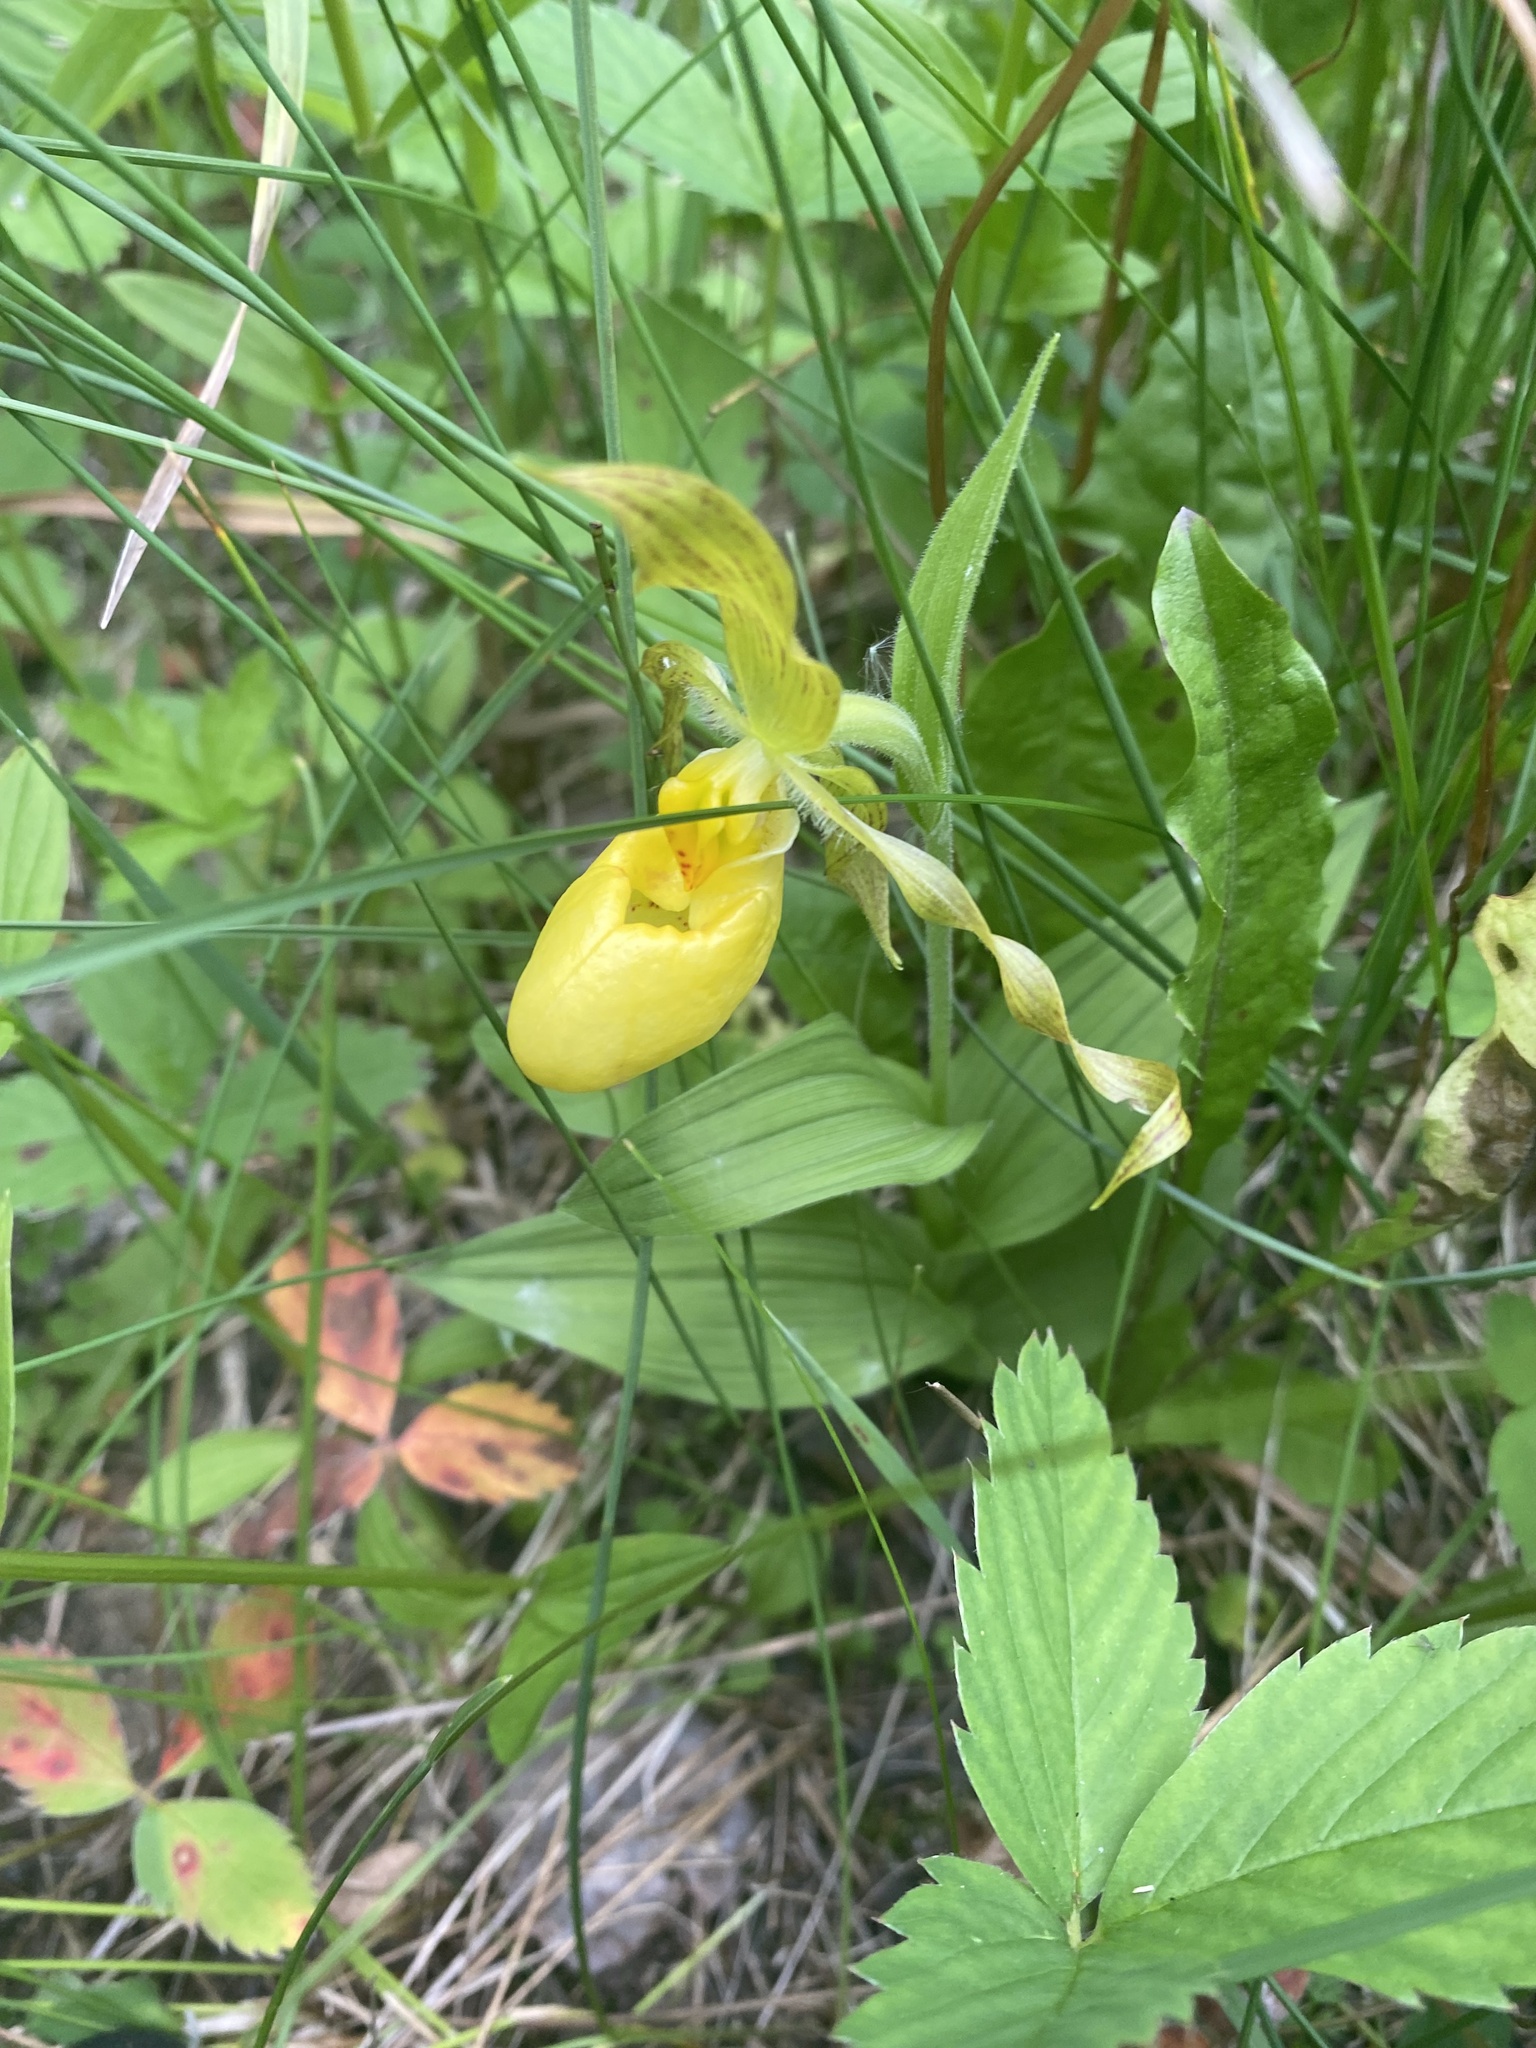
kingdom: Plantae
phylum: Tracheophyta
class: Liliopsida
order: Asparagales
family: Orchidaceae
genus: Cypripedium
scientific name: Cypripedium parviflorum
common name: American yellow lady's-slipper
